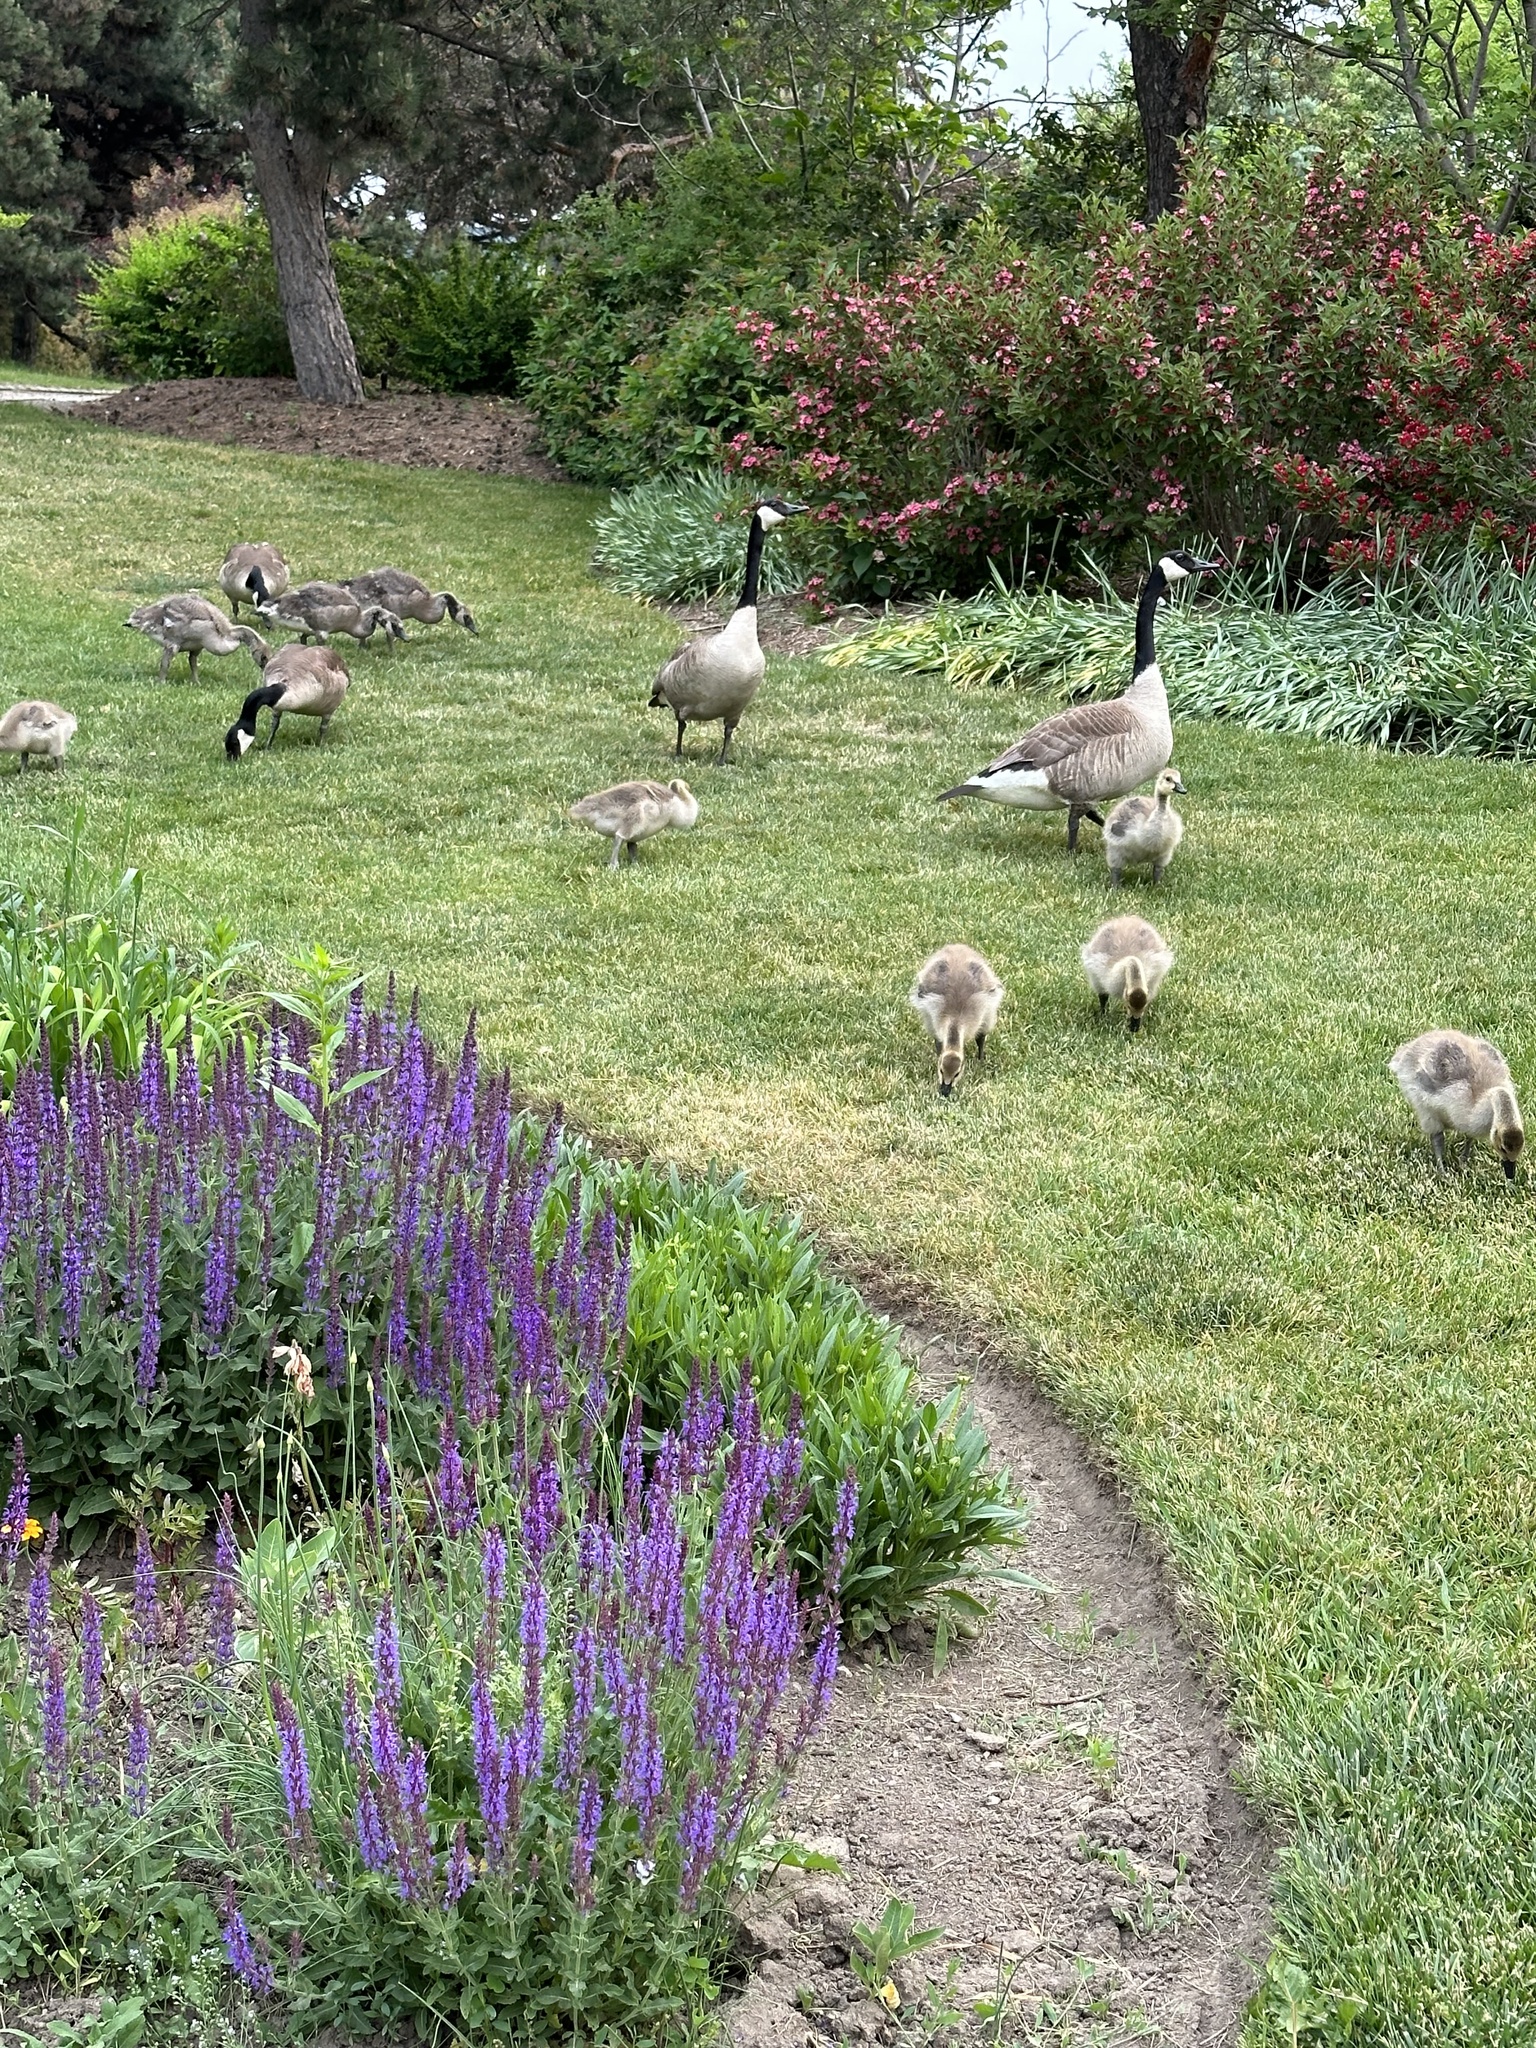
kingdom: Animalia
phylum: Chordata
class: Aves
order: Anseriformes
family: Anatidae
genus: Branta
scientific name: Branta canadensis
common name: Canada goose
